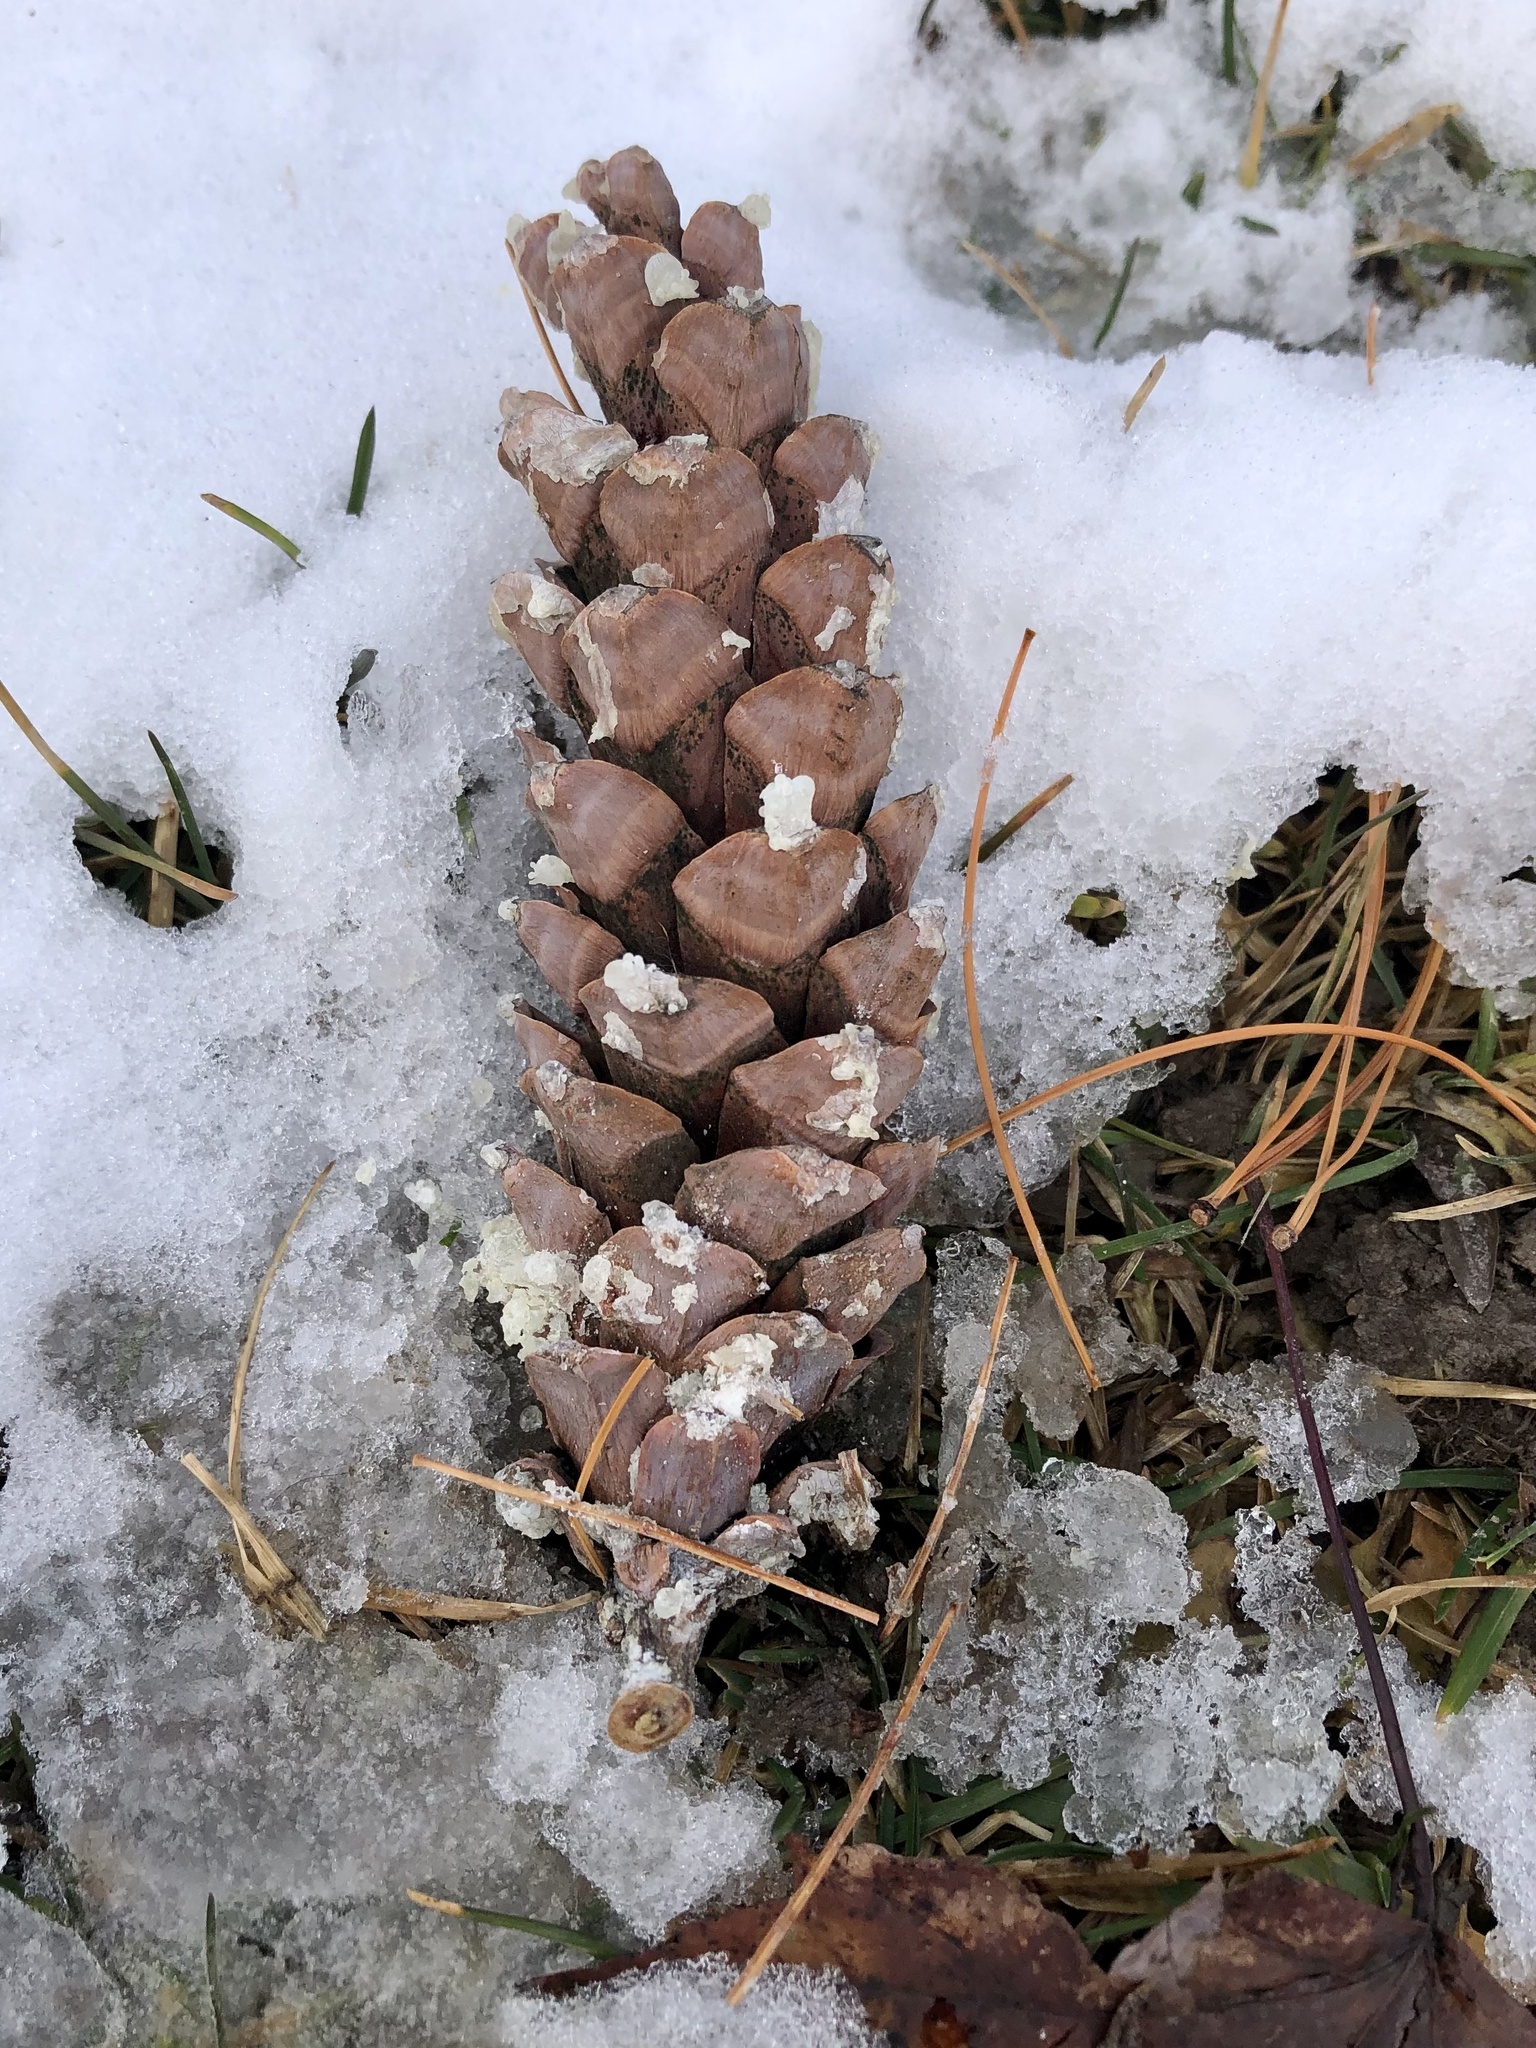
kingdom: Plantae
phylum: Tracheophyta
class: Pinopsida
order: Pinales
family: Pinaceae
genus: Pinus
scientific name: Pinus strobus
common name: Weymouth pine
